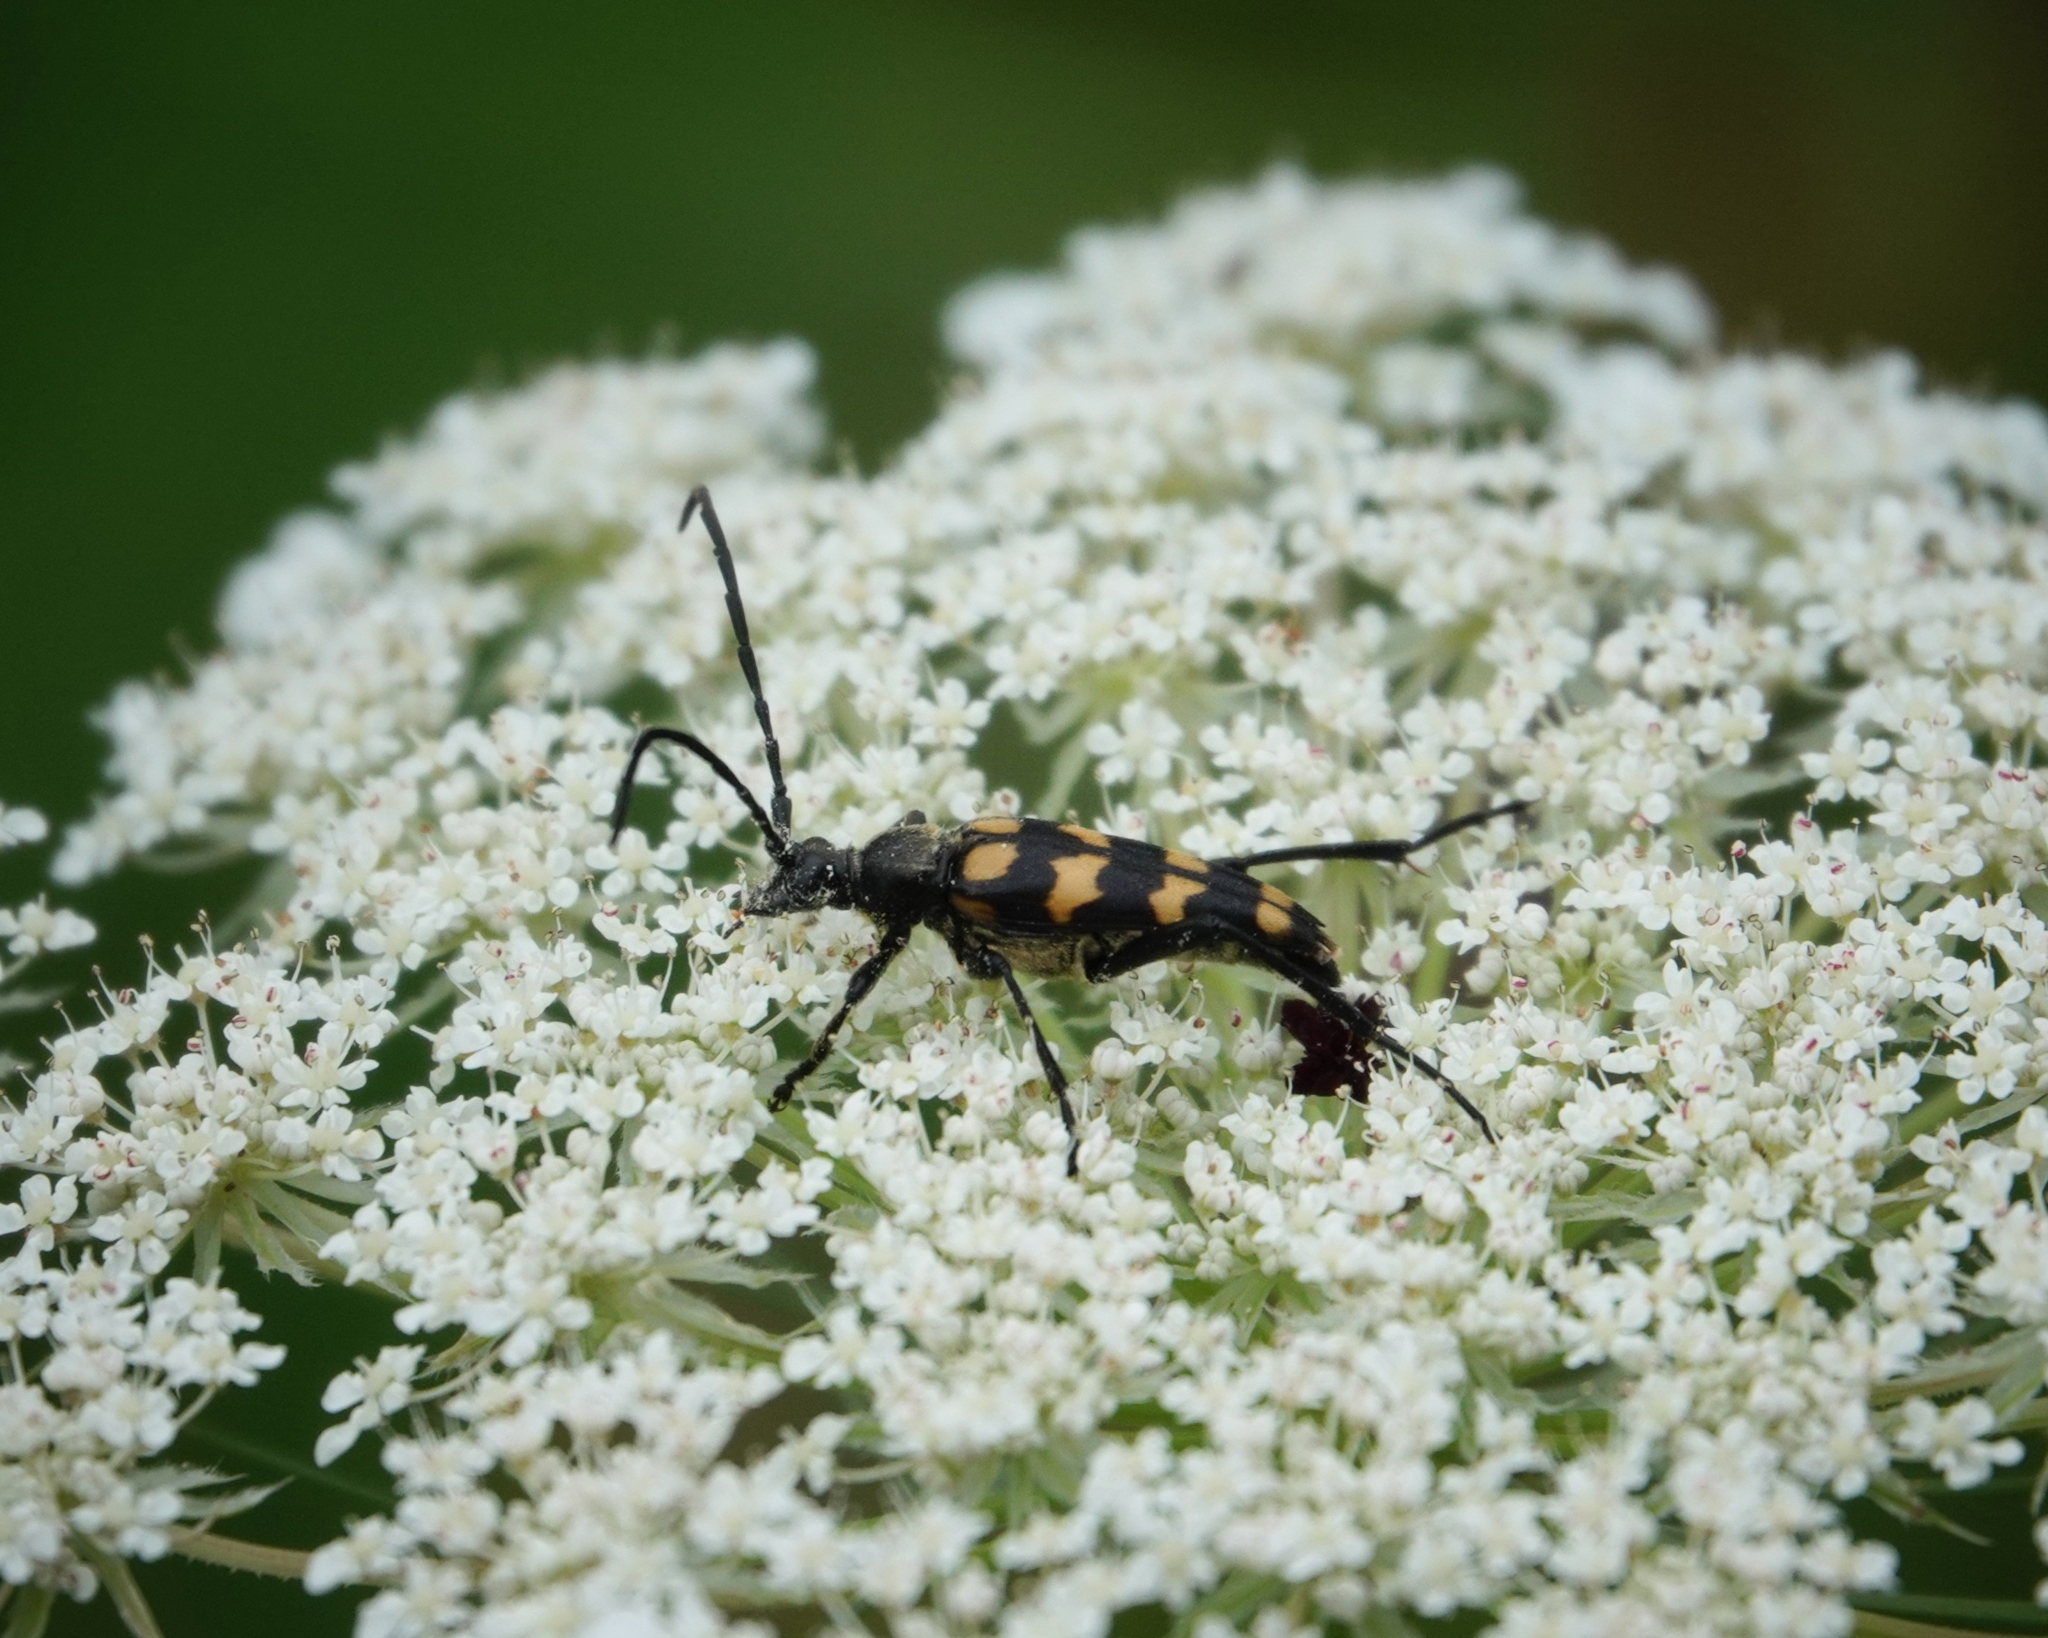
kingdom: Animalia
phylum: Arthropoda
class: Insecta
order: Coleoptera
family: Cerambycidae
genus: Leptura
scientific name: Leptura quadrifasciata
